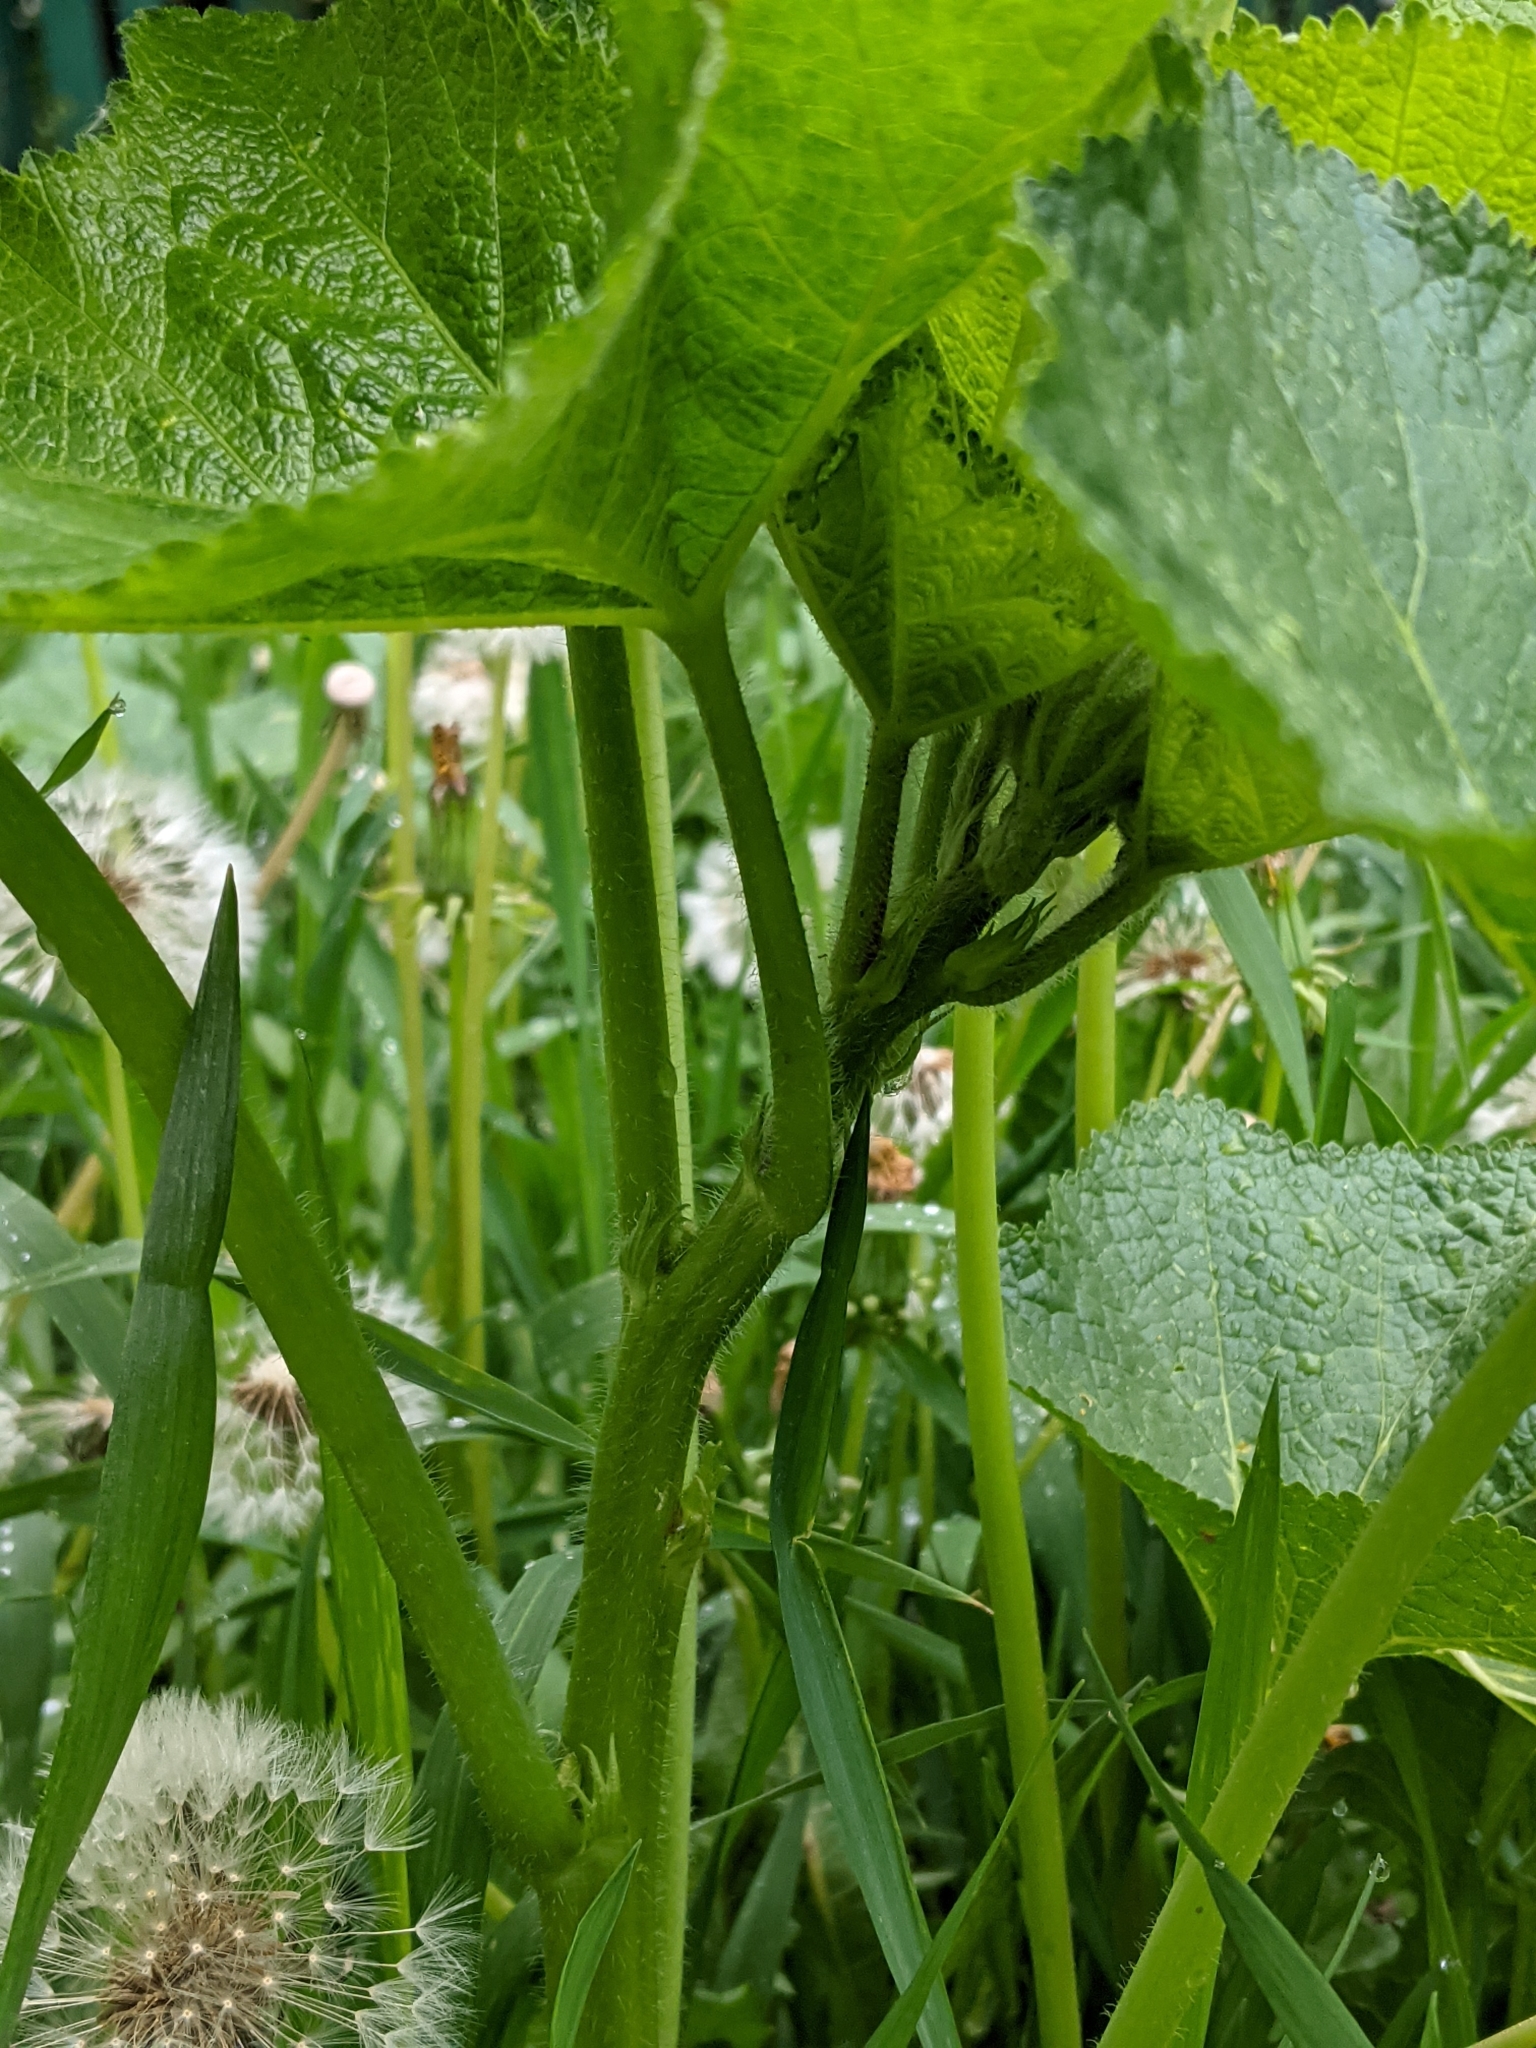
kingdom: Plantae
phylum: Tracheophyta
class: Magnoliopsida
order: Malvales
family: Malvaceae
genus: Alcea
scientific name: Alcea rosea
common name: Hollyhock
